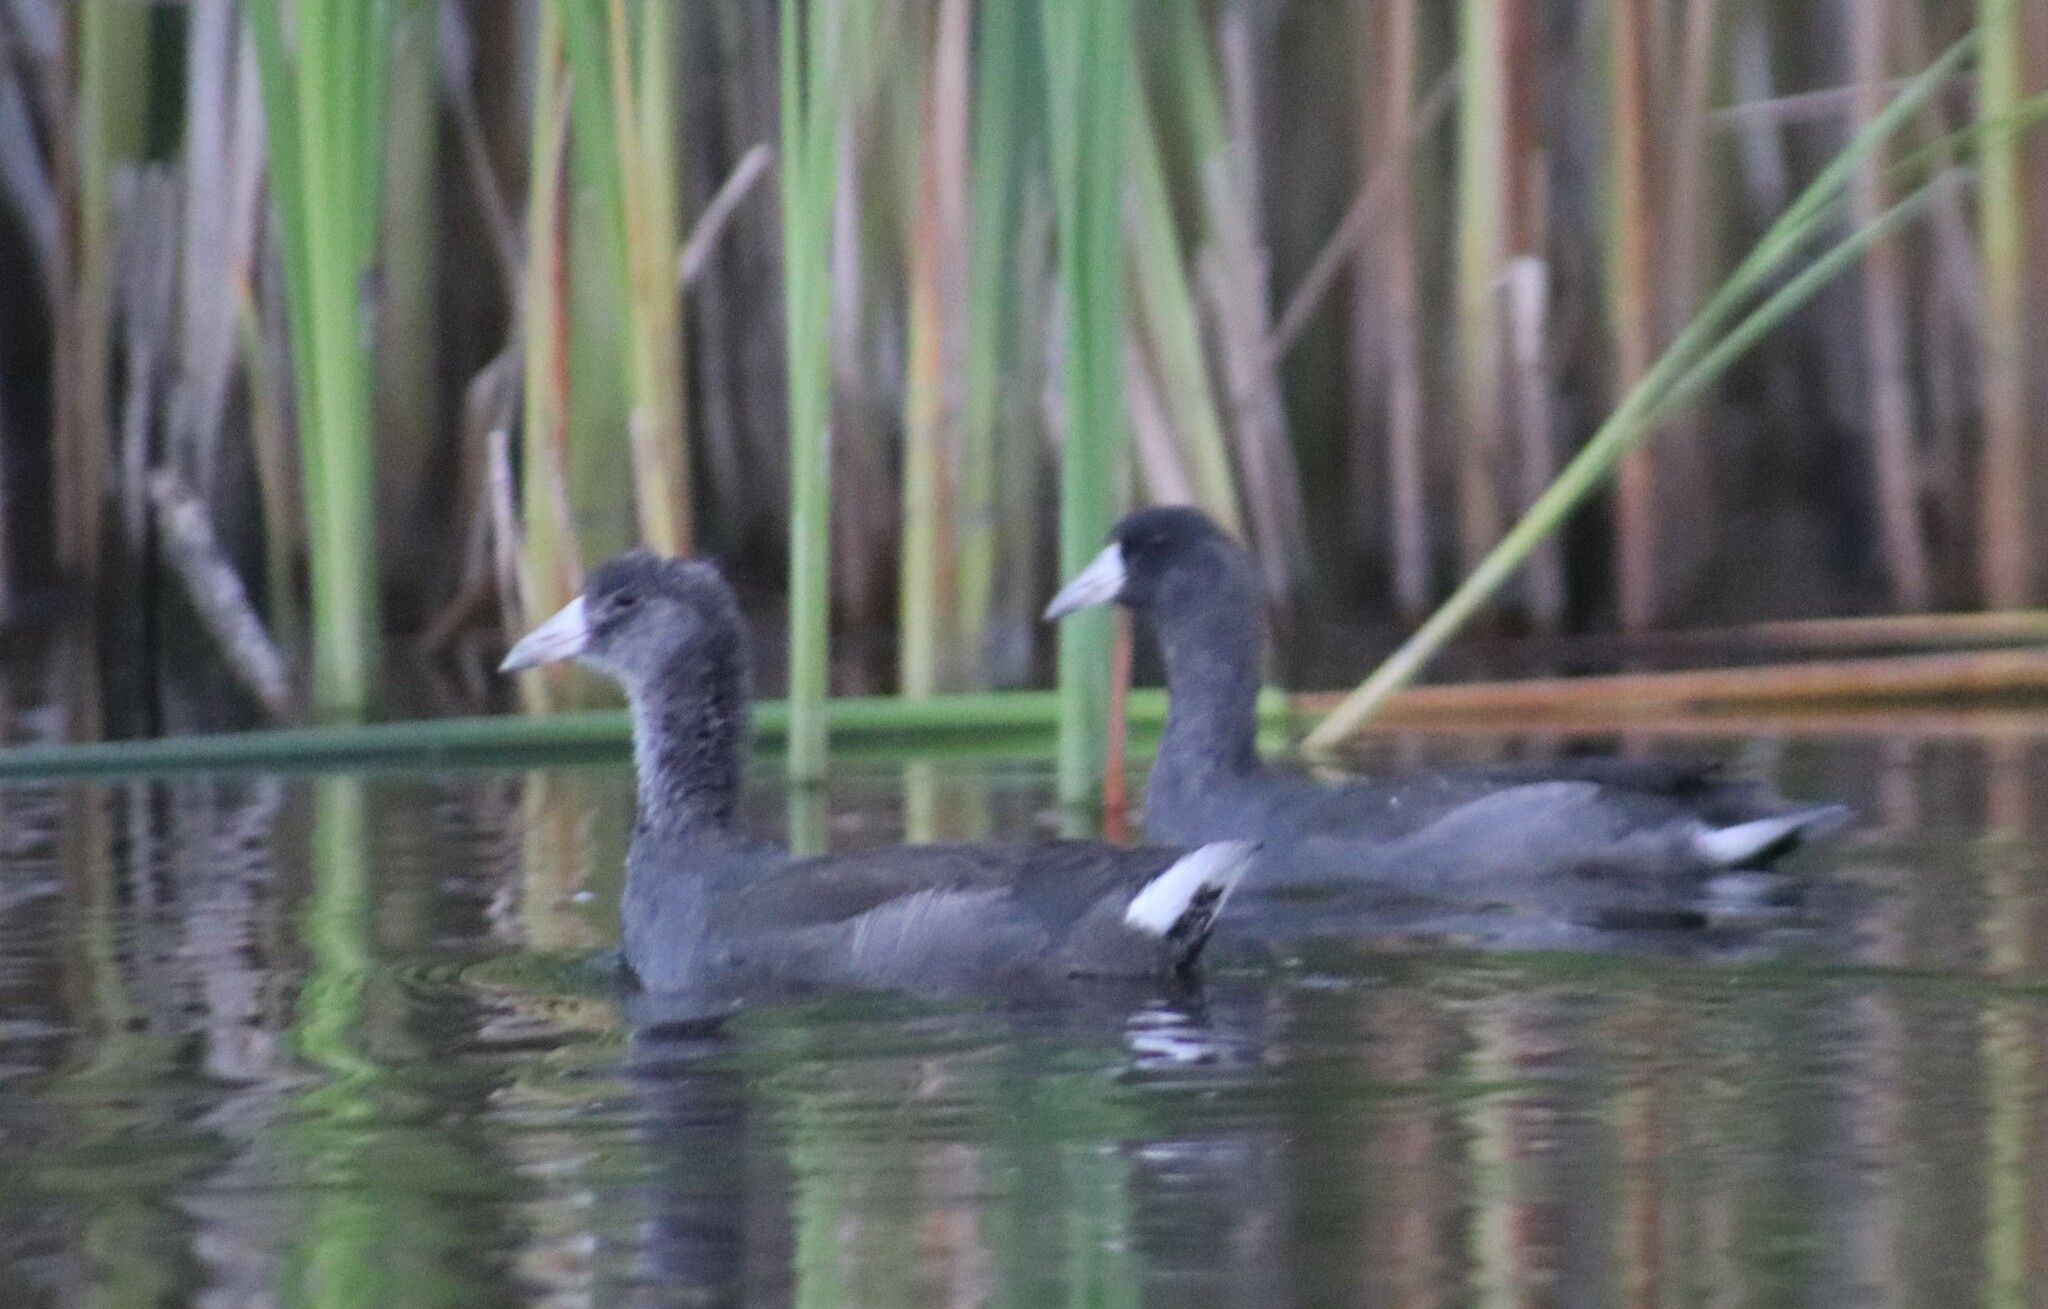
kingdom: Animalia
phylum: Chordata
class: Aves
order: Gruiformes
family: Rallidae
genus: Fulica
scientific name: Fulica americana
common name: American coot
